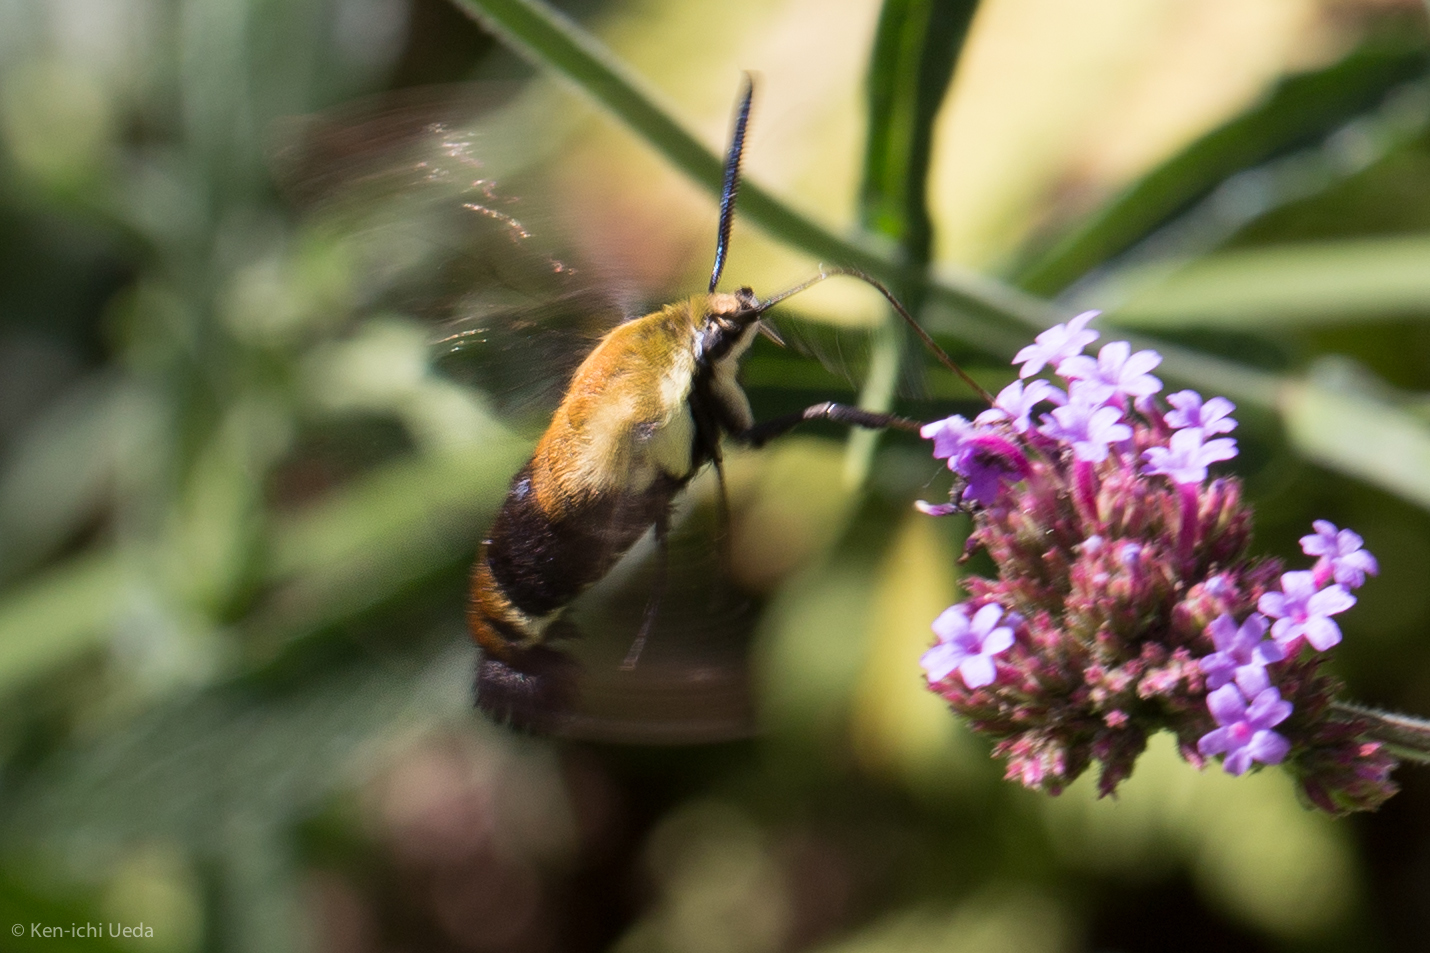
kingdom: Animalia
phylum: Arthropoda
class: Insecta
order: Lepidoptera
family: Sphingidae
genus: Hemaris
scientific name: Hemaris diffinis
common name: Bumblebee moth
